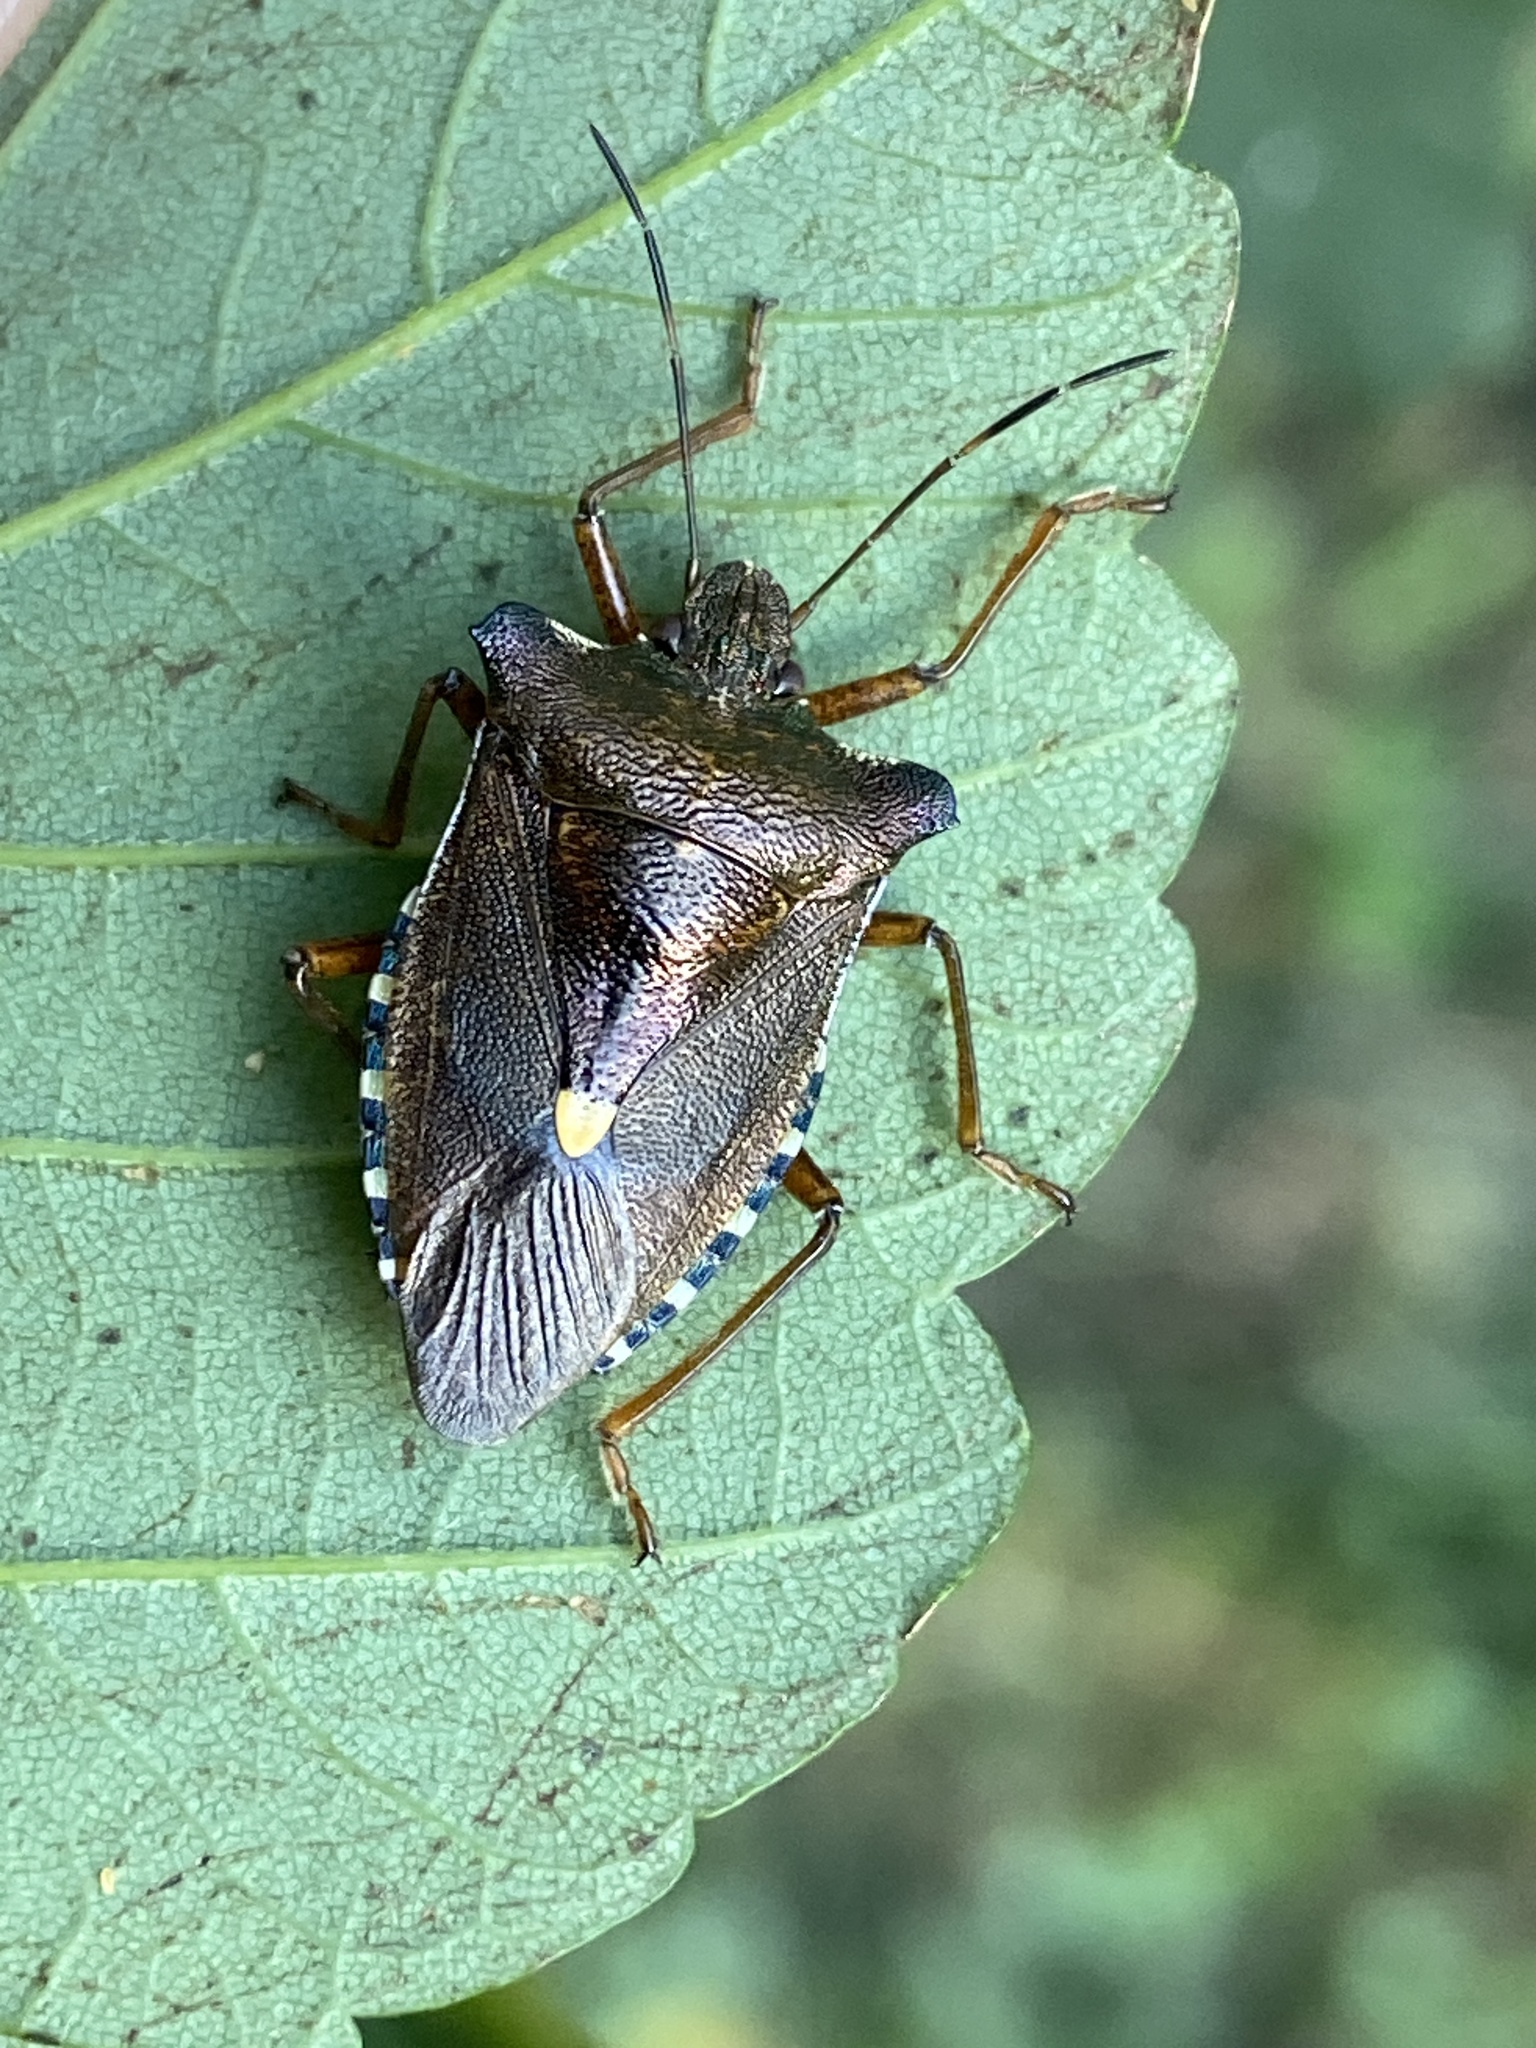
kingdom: Animalia
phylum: Arthropoda
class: Insecta
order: Hemiptera
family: Pentatomidae
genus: Pentatoma
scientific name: Pentatoma rufipes
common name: Forest bug
